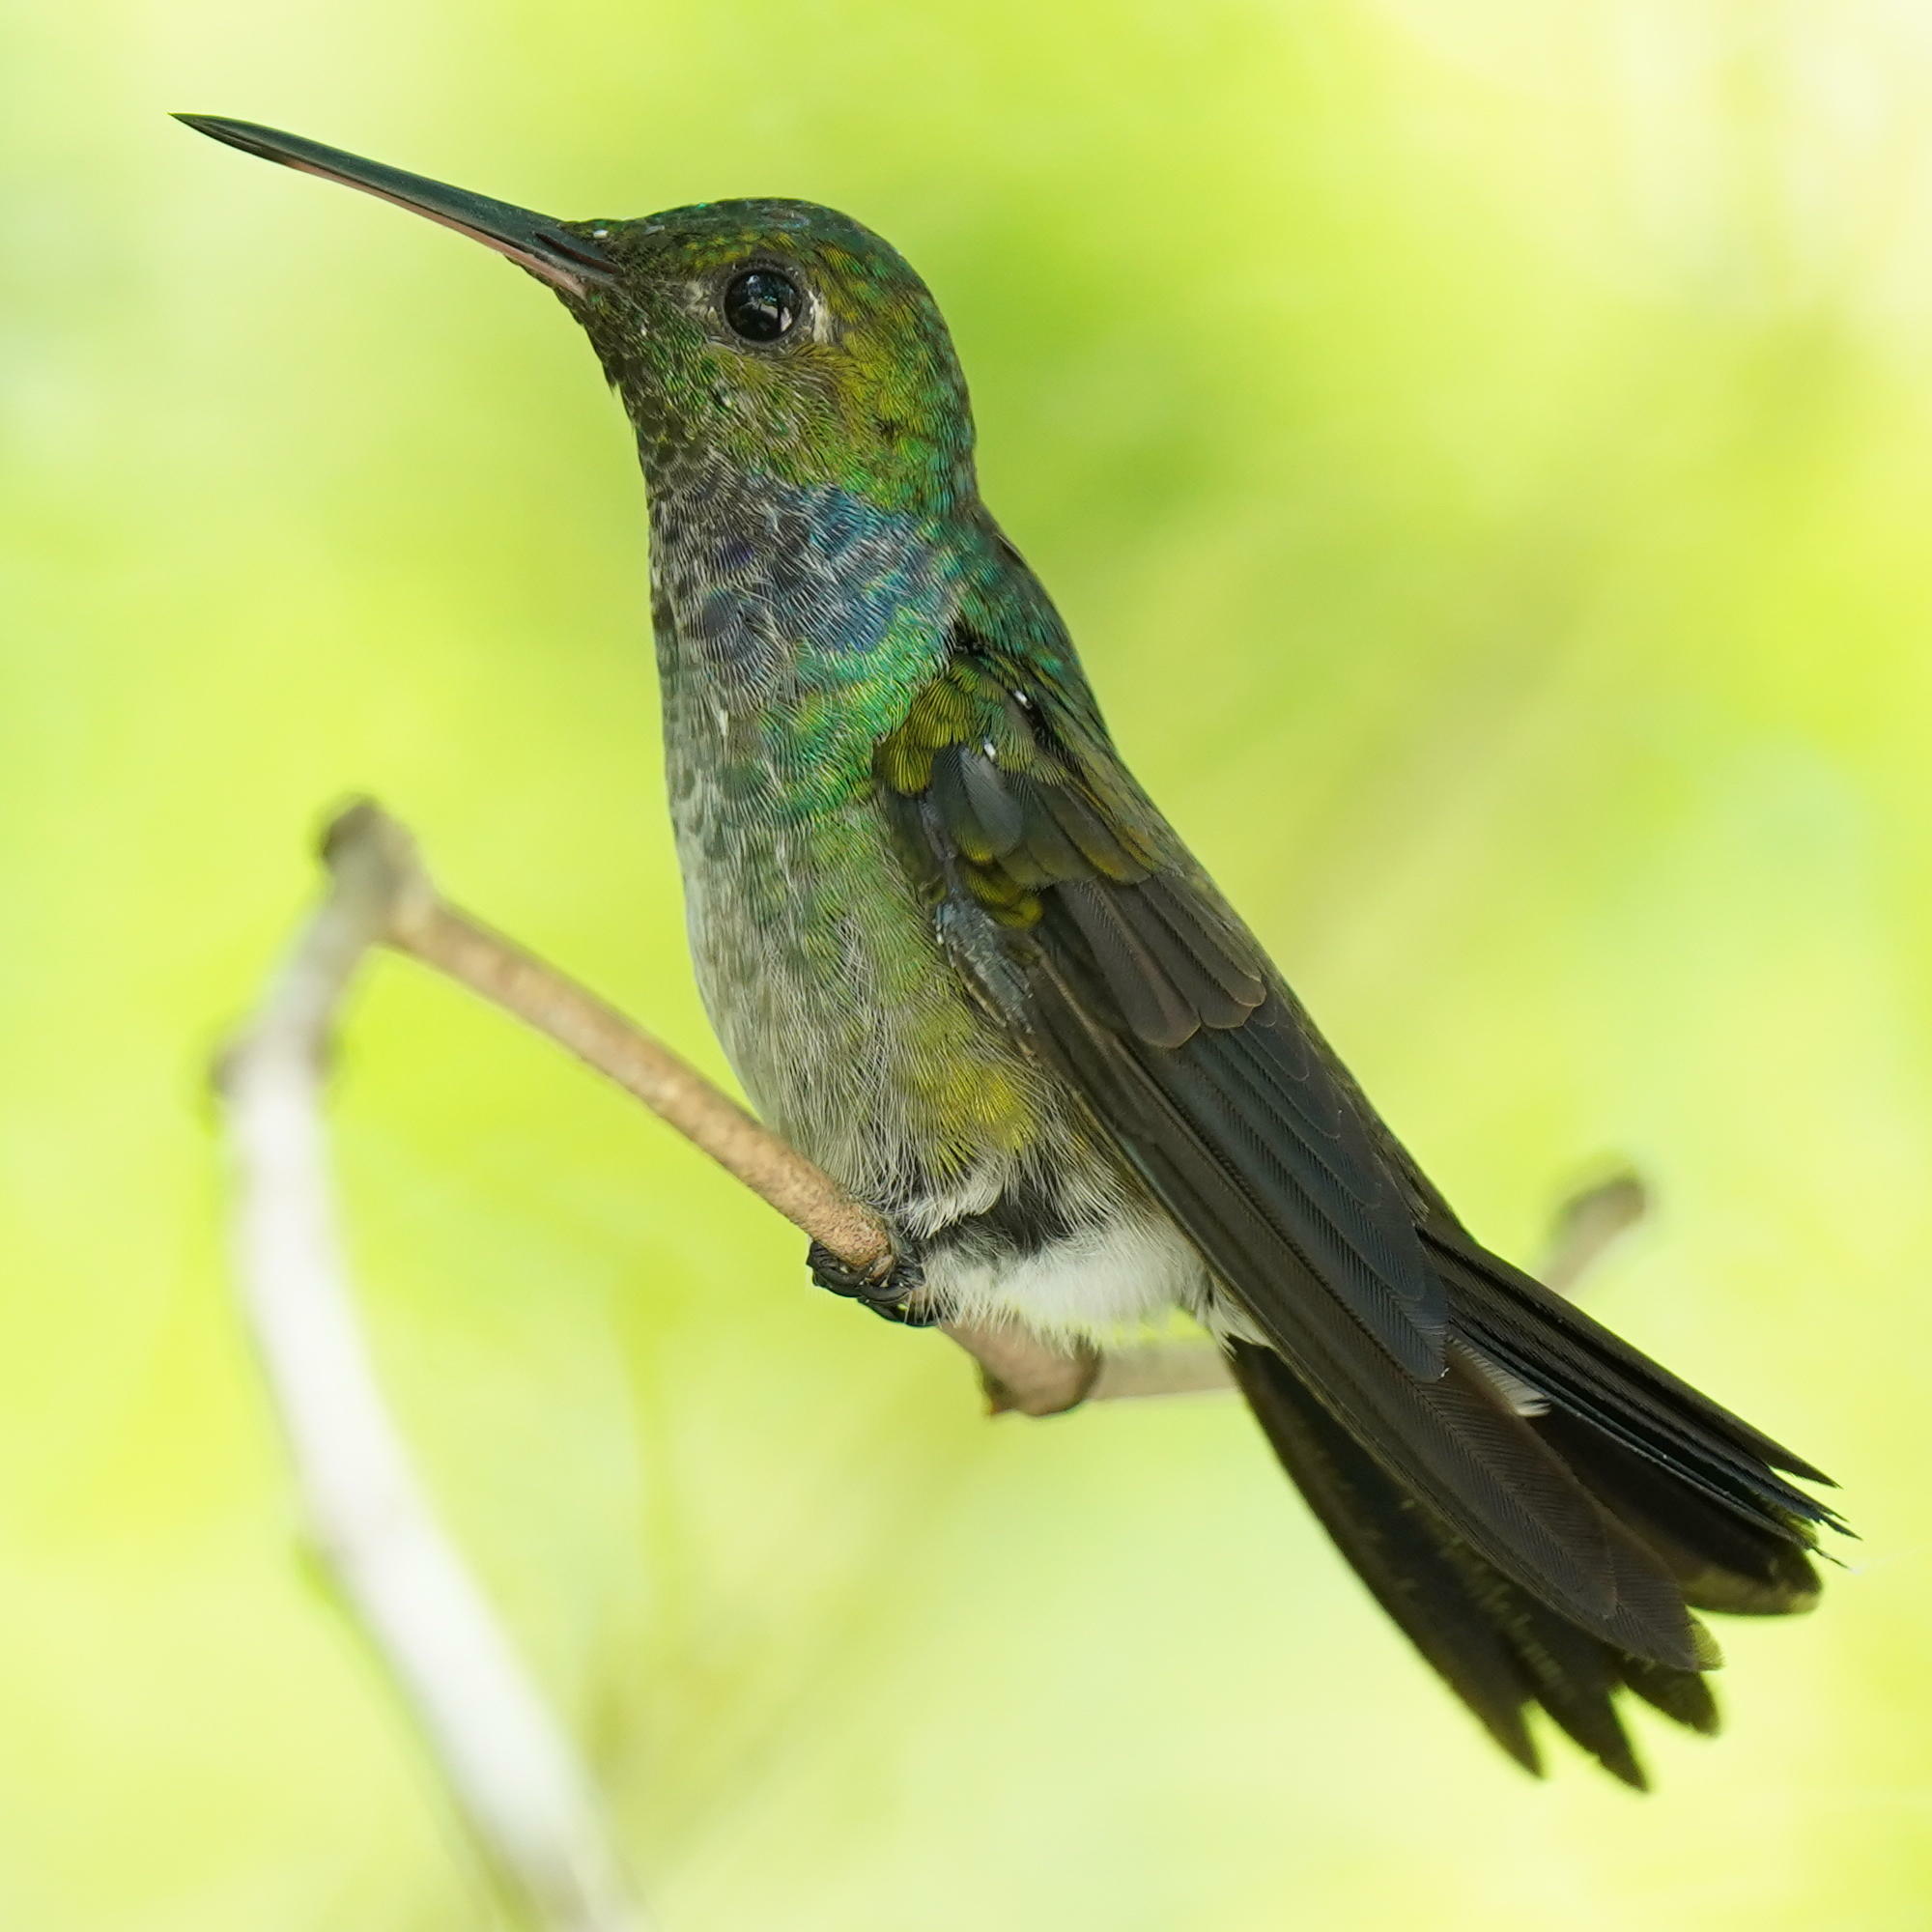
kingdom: Animalia
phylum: Chordata
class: Aves
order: Apodiformes
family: Trochilidae
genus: Polyerata
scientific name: Polyerata amabilis
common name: Blue-chested hummingbird
